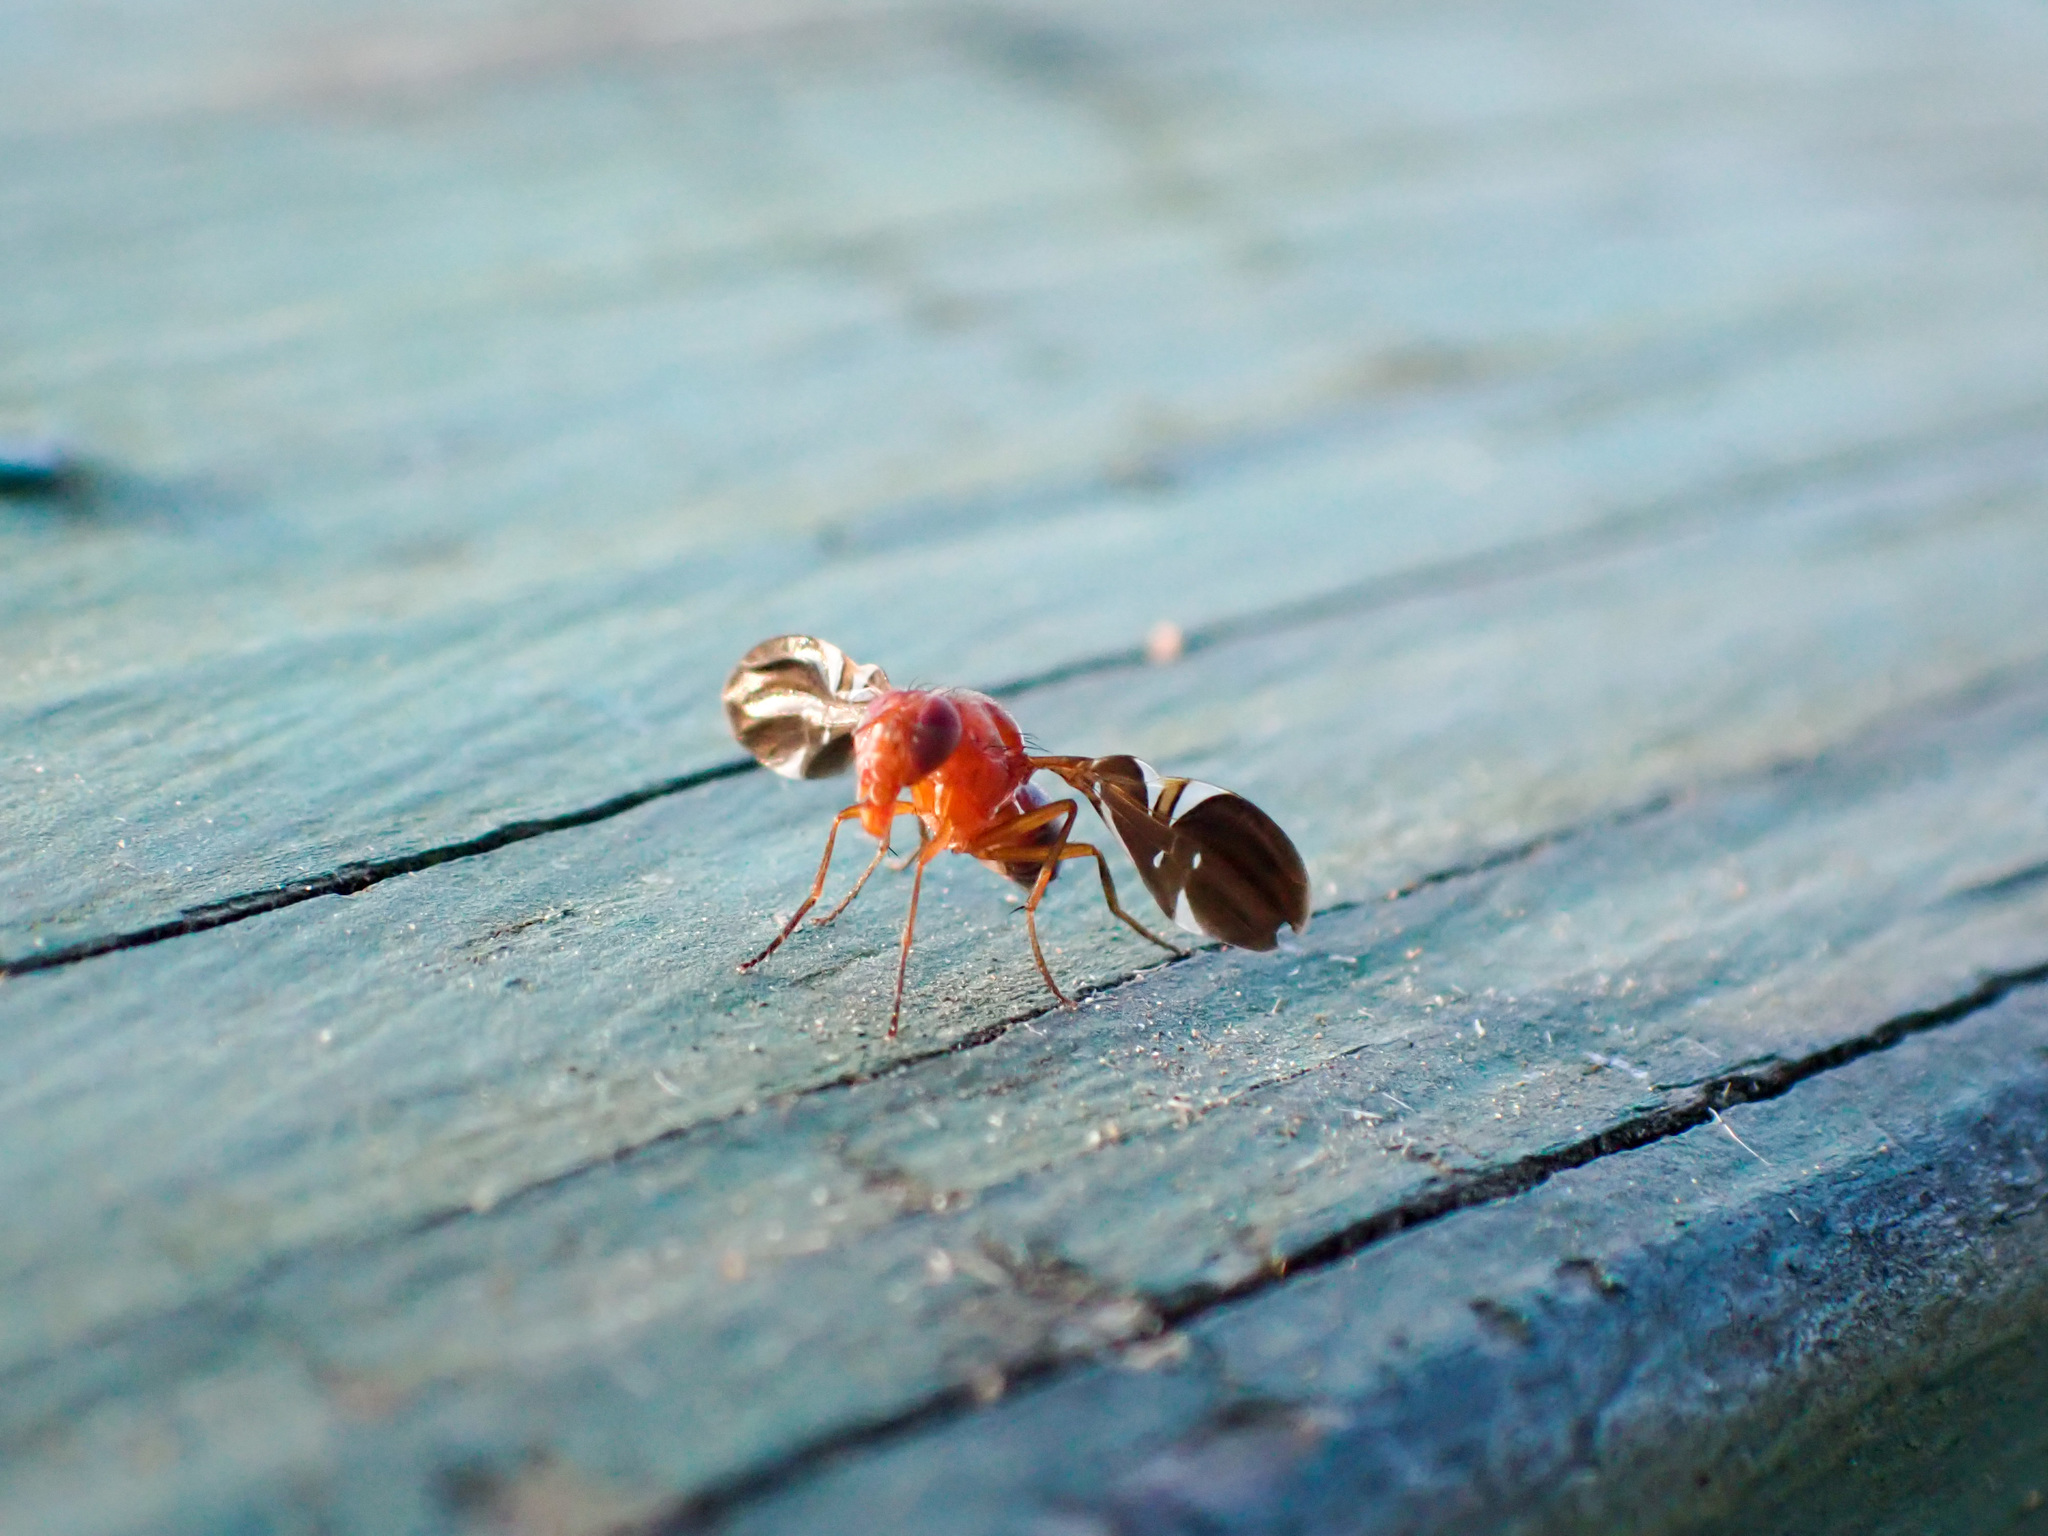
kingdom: Animalia
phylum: Arthropoda
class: Insecta
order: Diptera
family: Ulidiidae
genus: Delphinia
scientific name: Delphinia picta
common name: Common picture-winged fly
